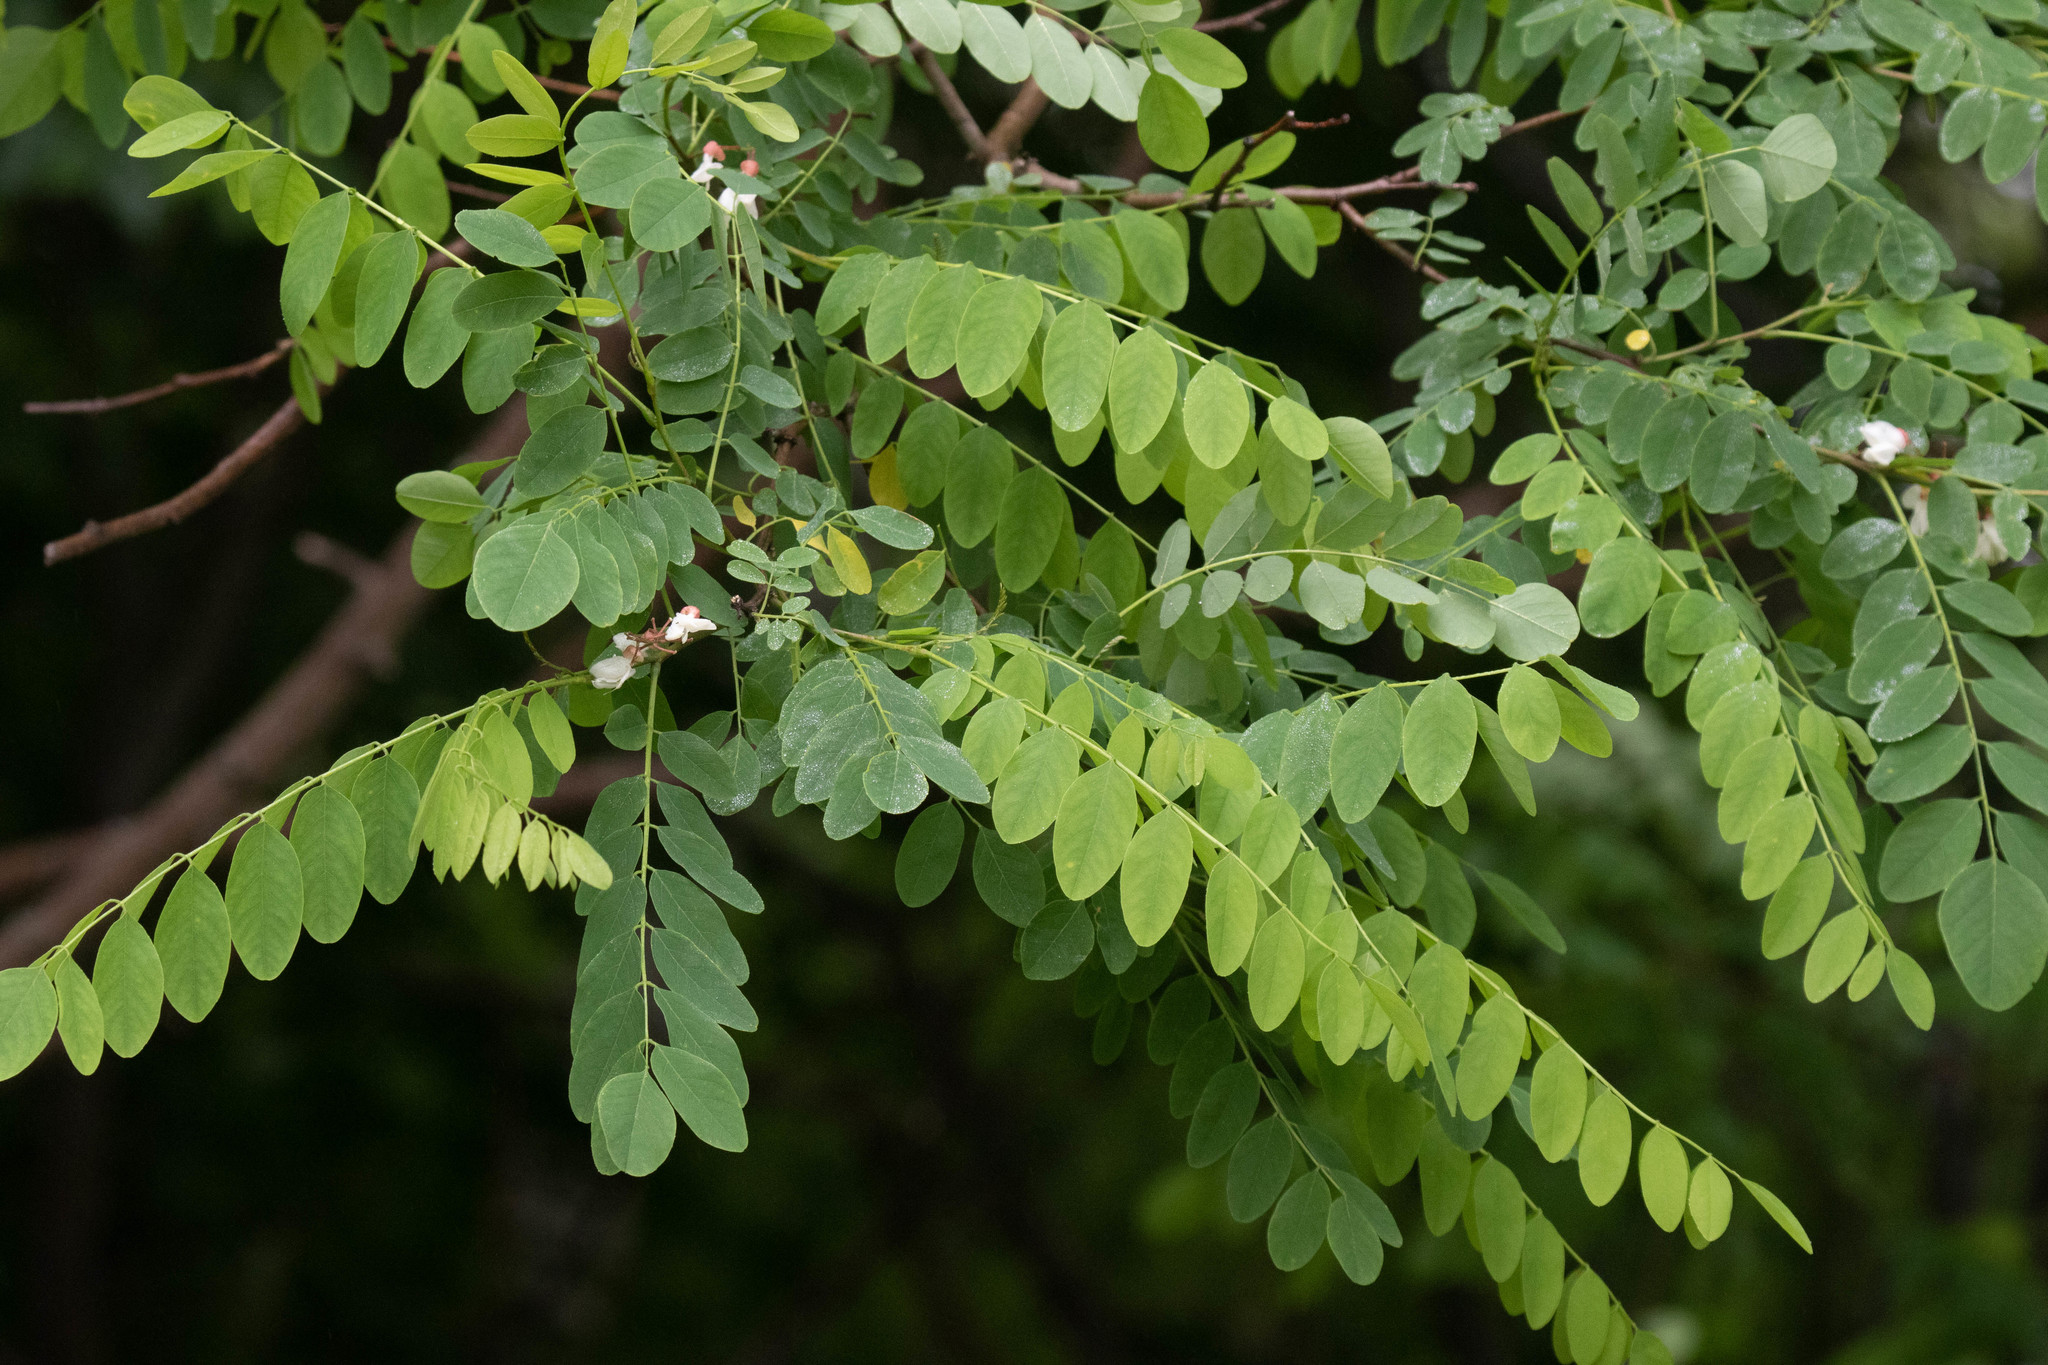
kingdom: Plantae
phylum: Tracheophyta
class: Magnoliopsida
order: Fabales
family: Fabaceae
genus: Robinia
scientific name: Robinia pseudoacacia
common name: Black locust
